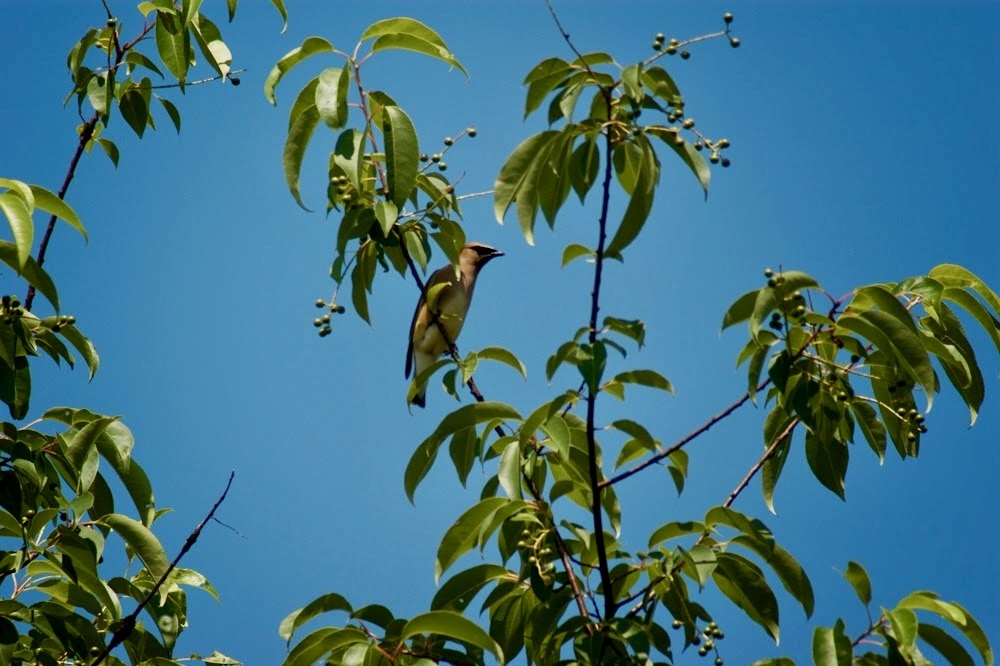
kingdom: Animalia
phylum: Chordata
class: Aves
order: Passeriformes
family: Bombycillidae
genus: Bombycilla
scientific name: Bombycilla cedrorum
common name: Cedar waxwing
